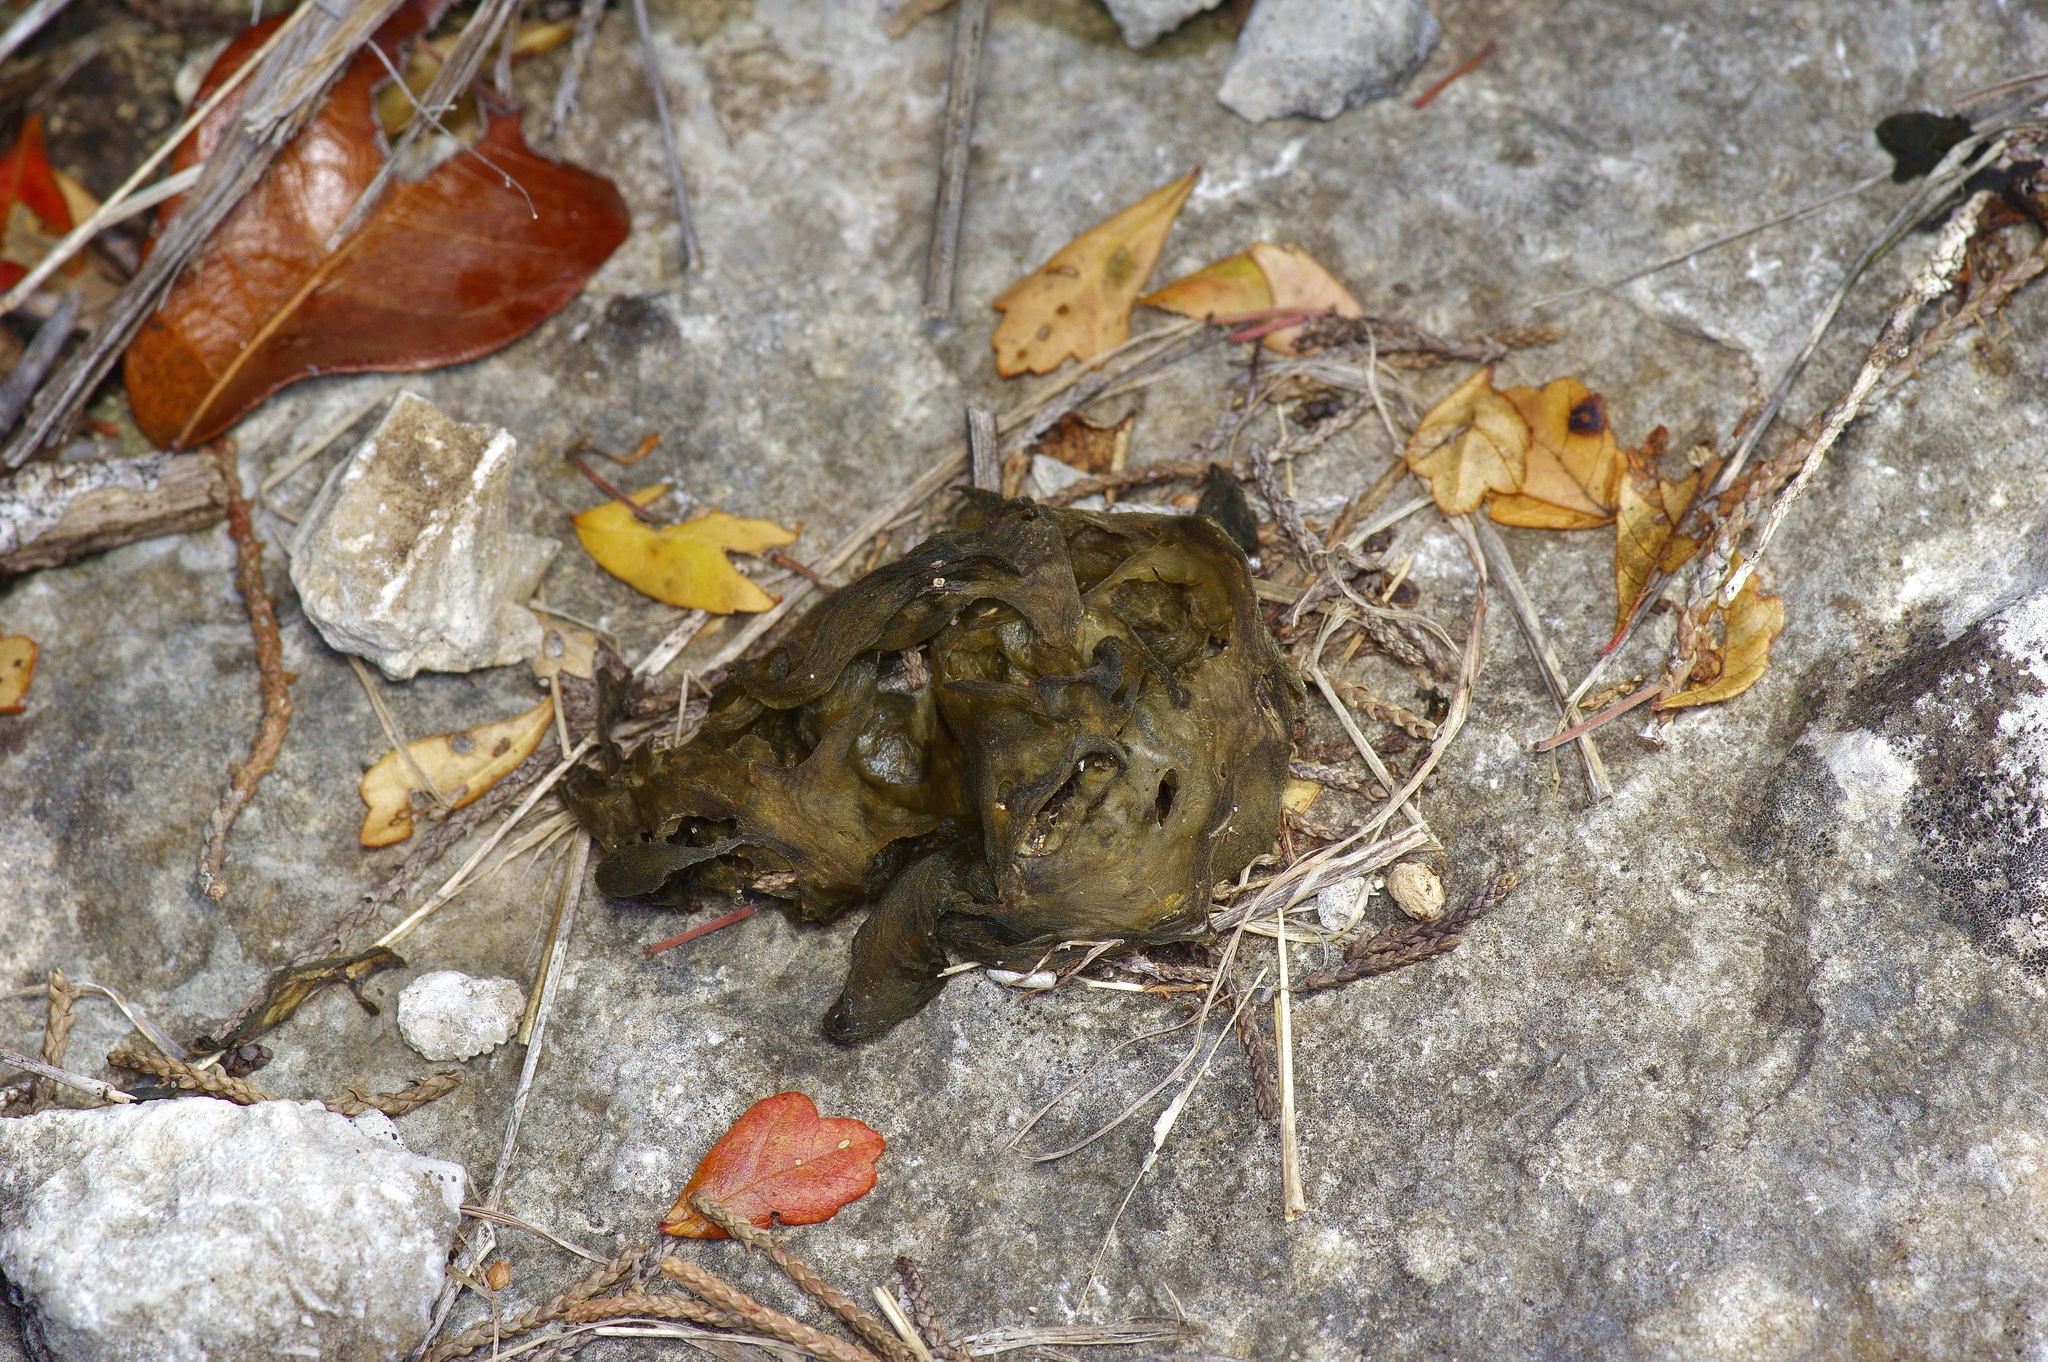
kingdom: Bacteria
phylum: Cyanobacteria
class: Cyanobacteriia
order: Cyanobacteriales
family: Nostocaceae
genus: Nostoc
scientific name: Nostoc commune
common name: Star jelly
